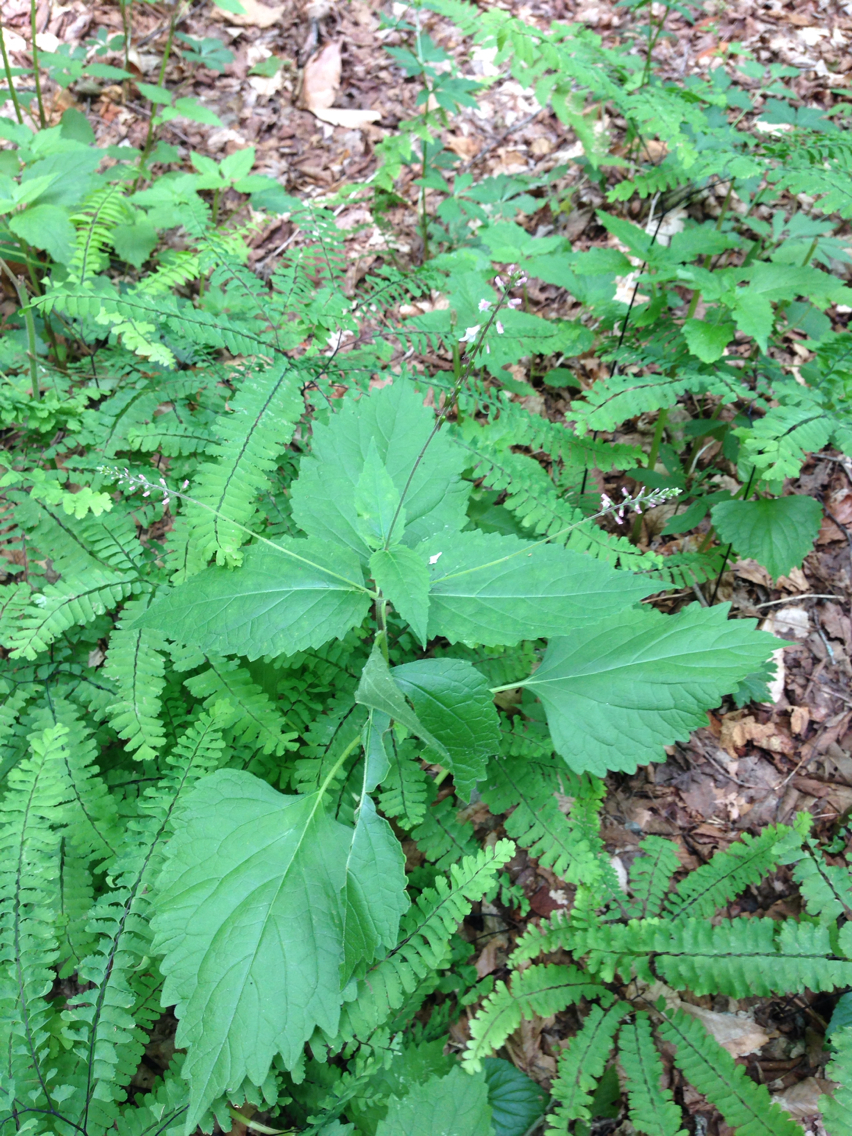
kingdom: Plantae
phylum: Tracheophyta
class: Magnoliopsida
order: Lamiales
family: Phrymaceae
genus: Phryma
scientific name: Phryma leptostachya
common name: American lopseed
